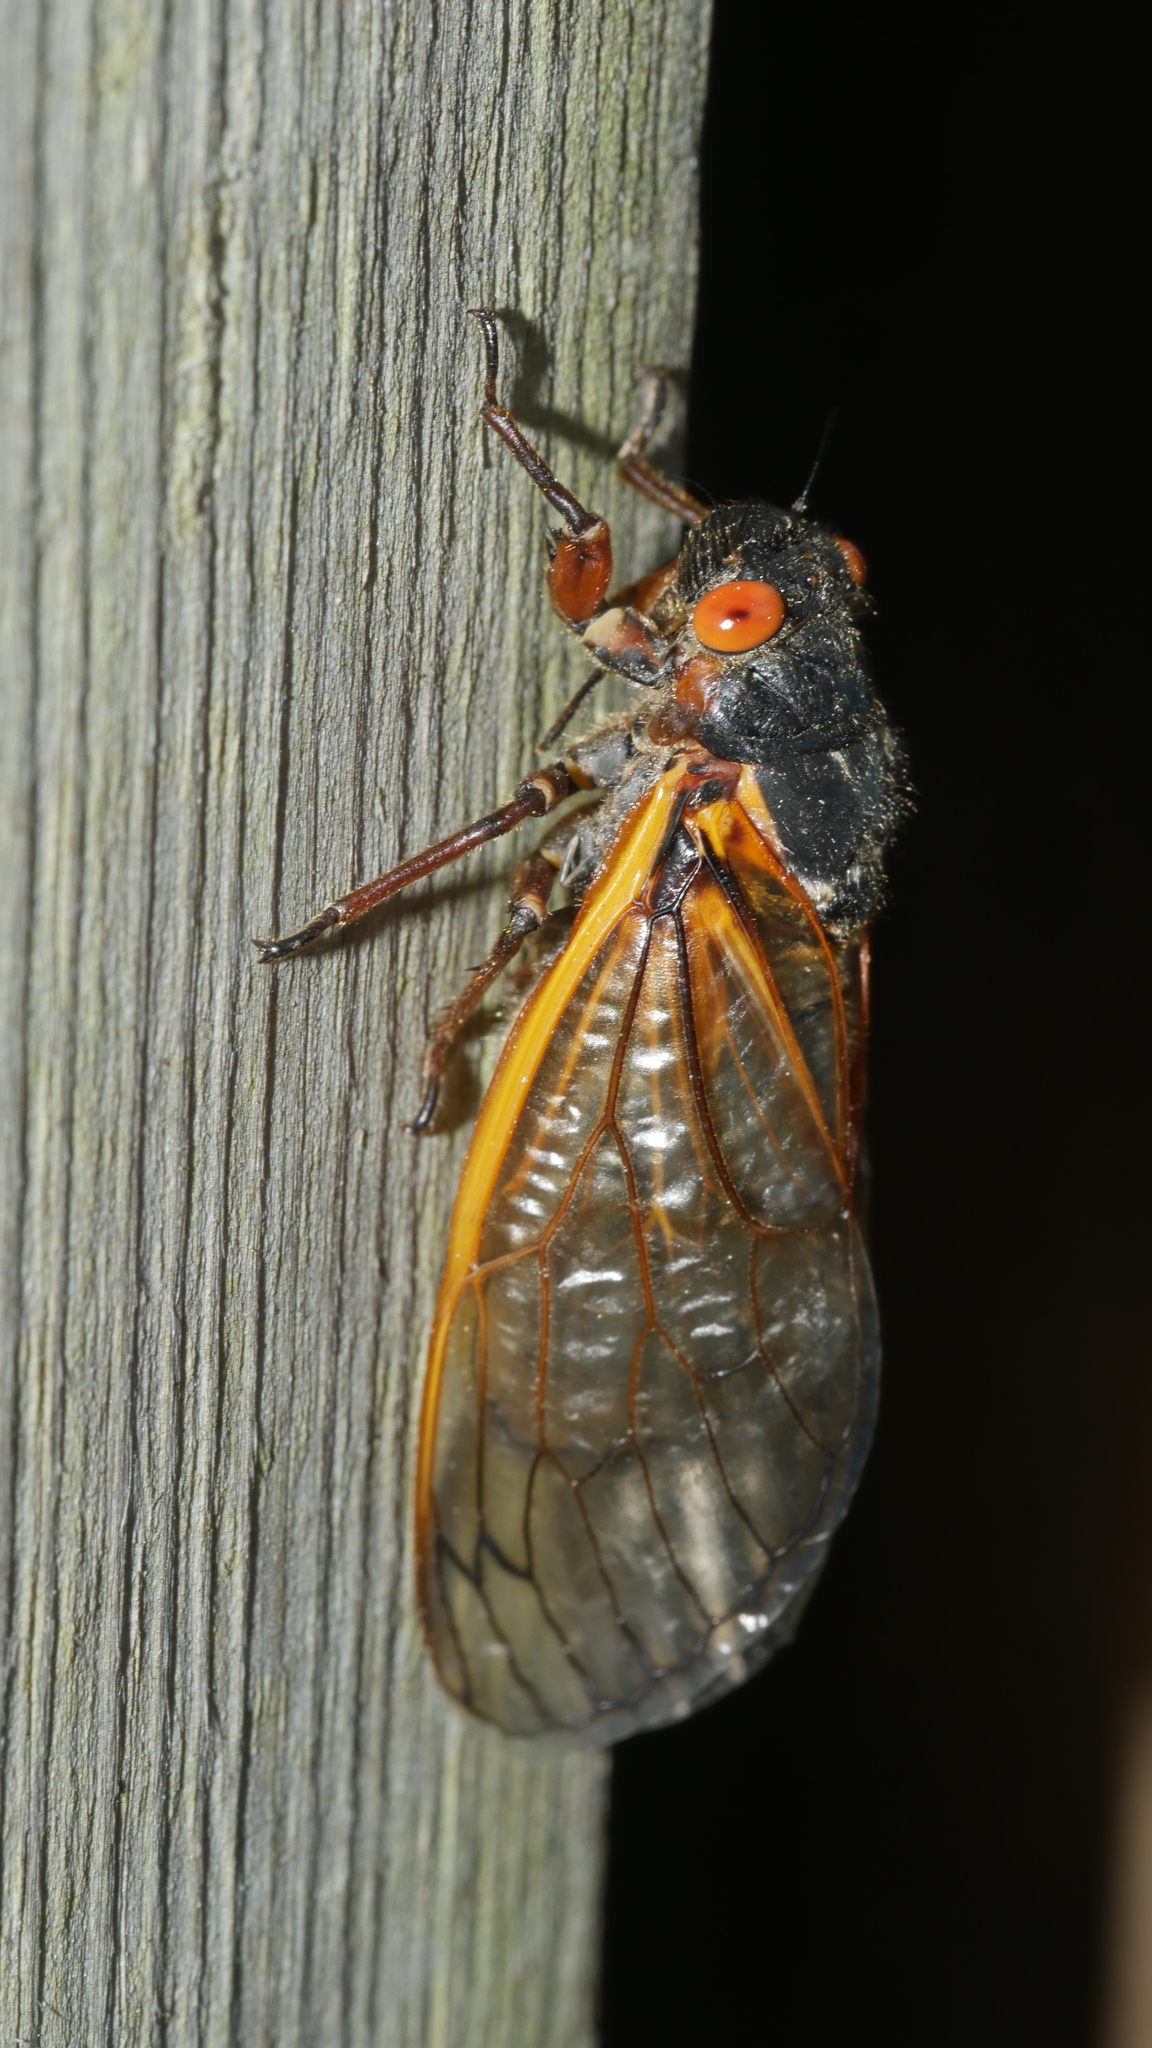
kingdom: Animalia
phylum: Arthropoda
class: Insecta
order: Hemiptera
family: Cicadidae
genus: Magicicada
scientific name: Magicicada septendecim
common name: Periodical cicada
